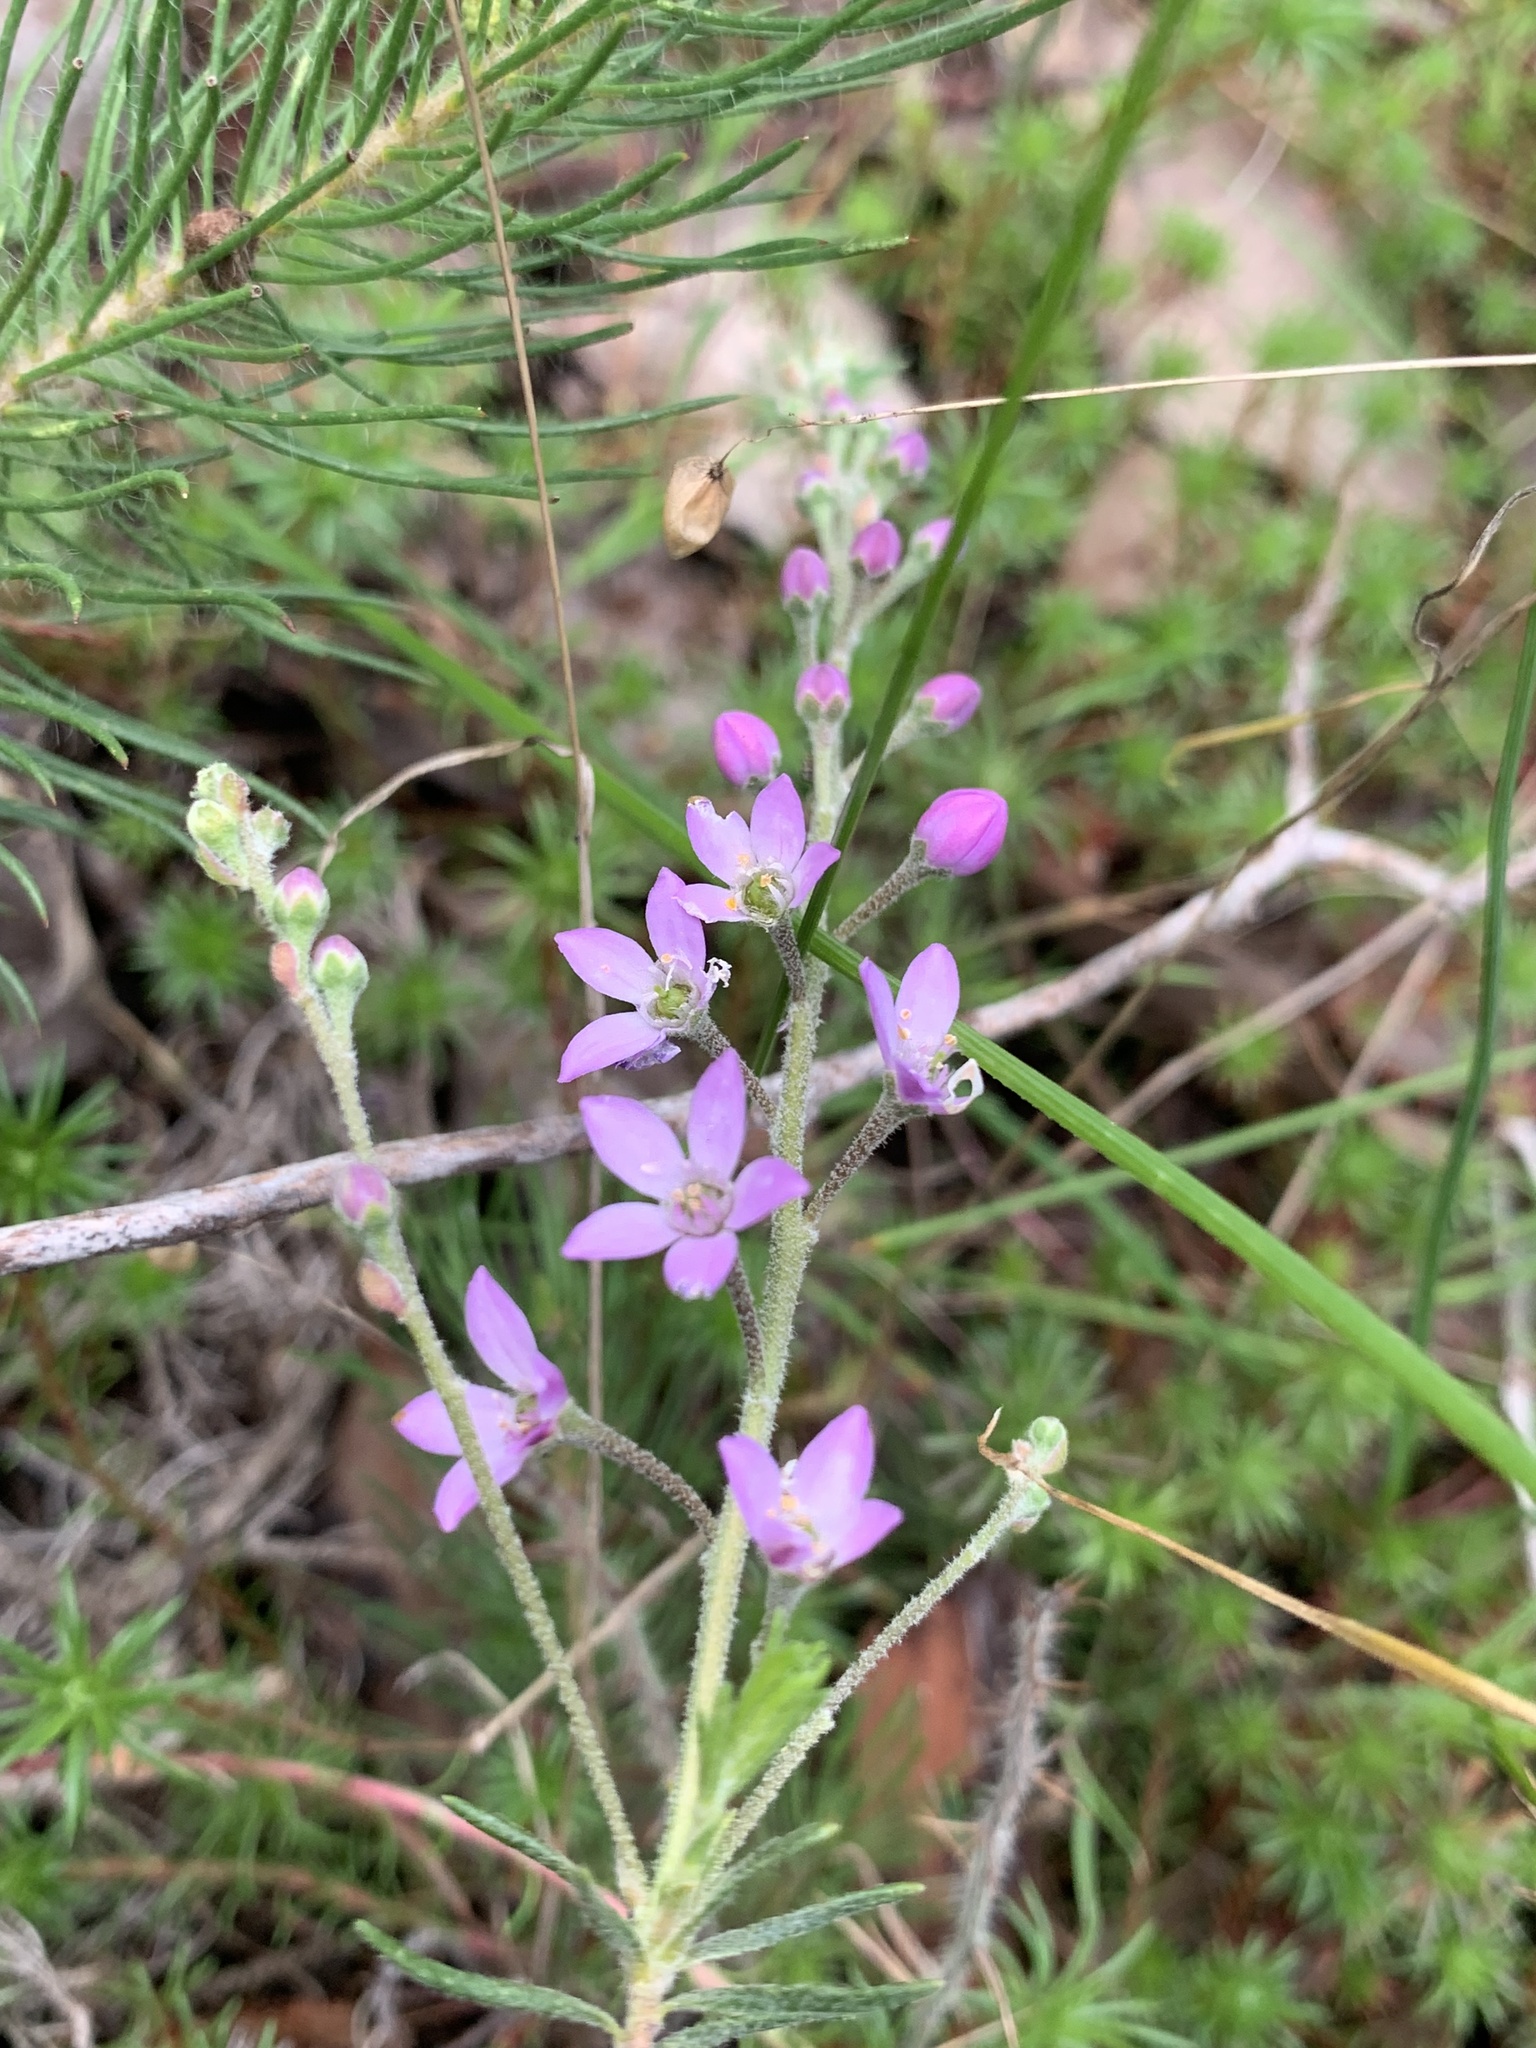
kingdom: Plantae
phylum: Tracheophyta
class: Magnoliopsida
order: Sapindales
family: Rutaceae
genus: Philotheca
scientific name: Philotheca spicata
